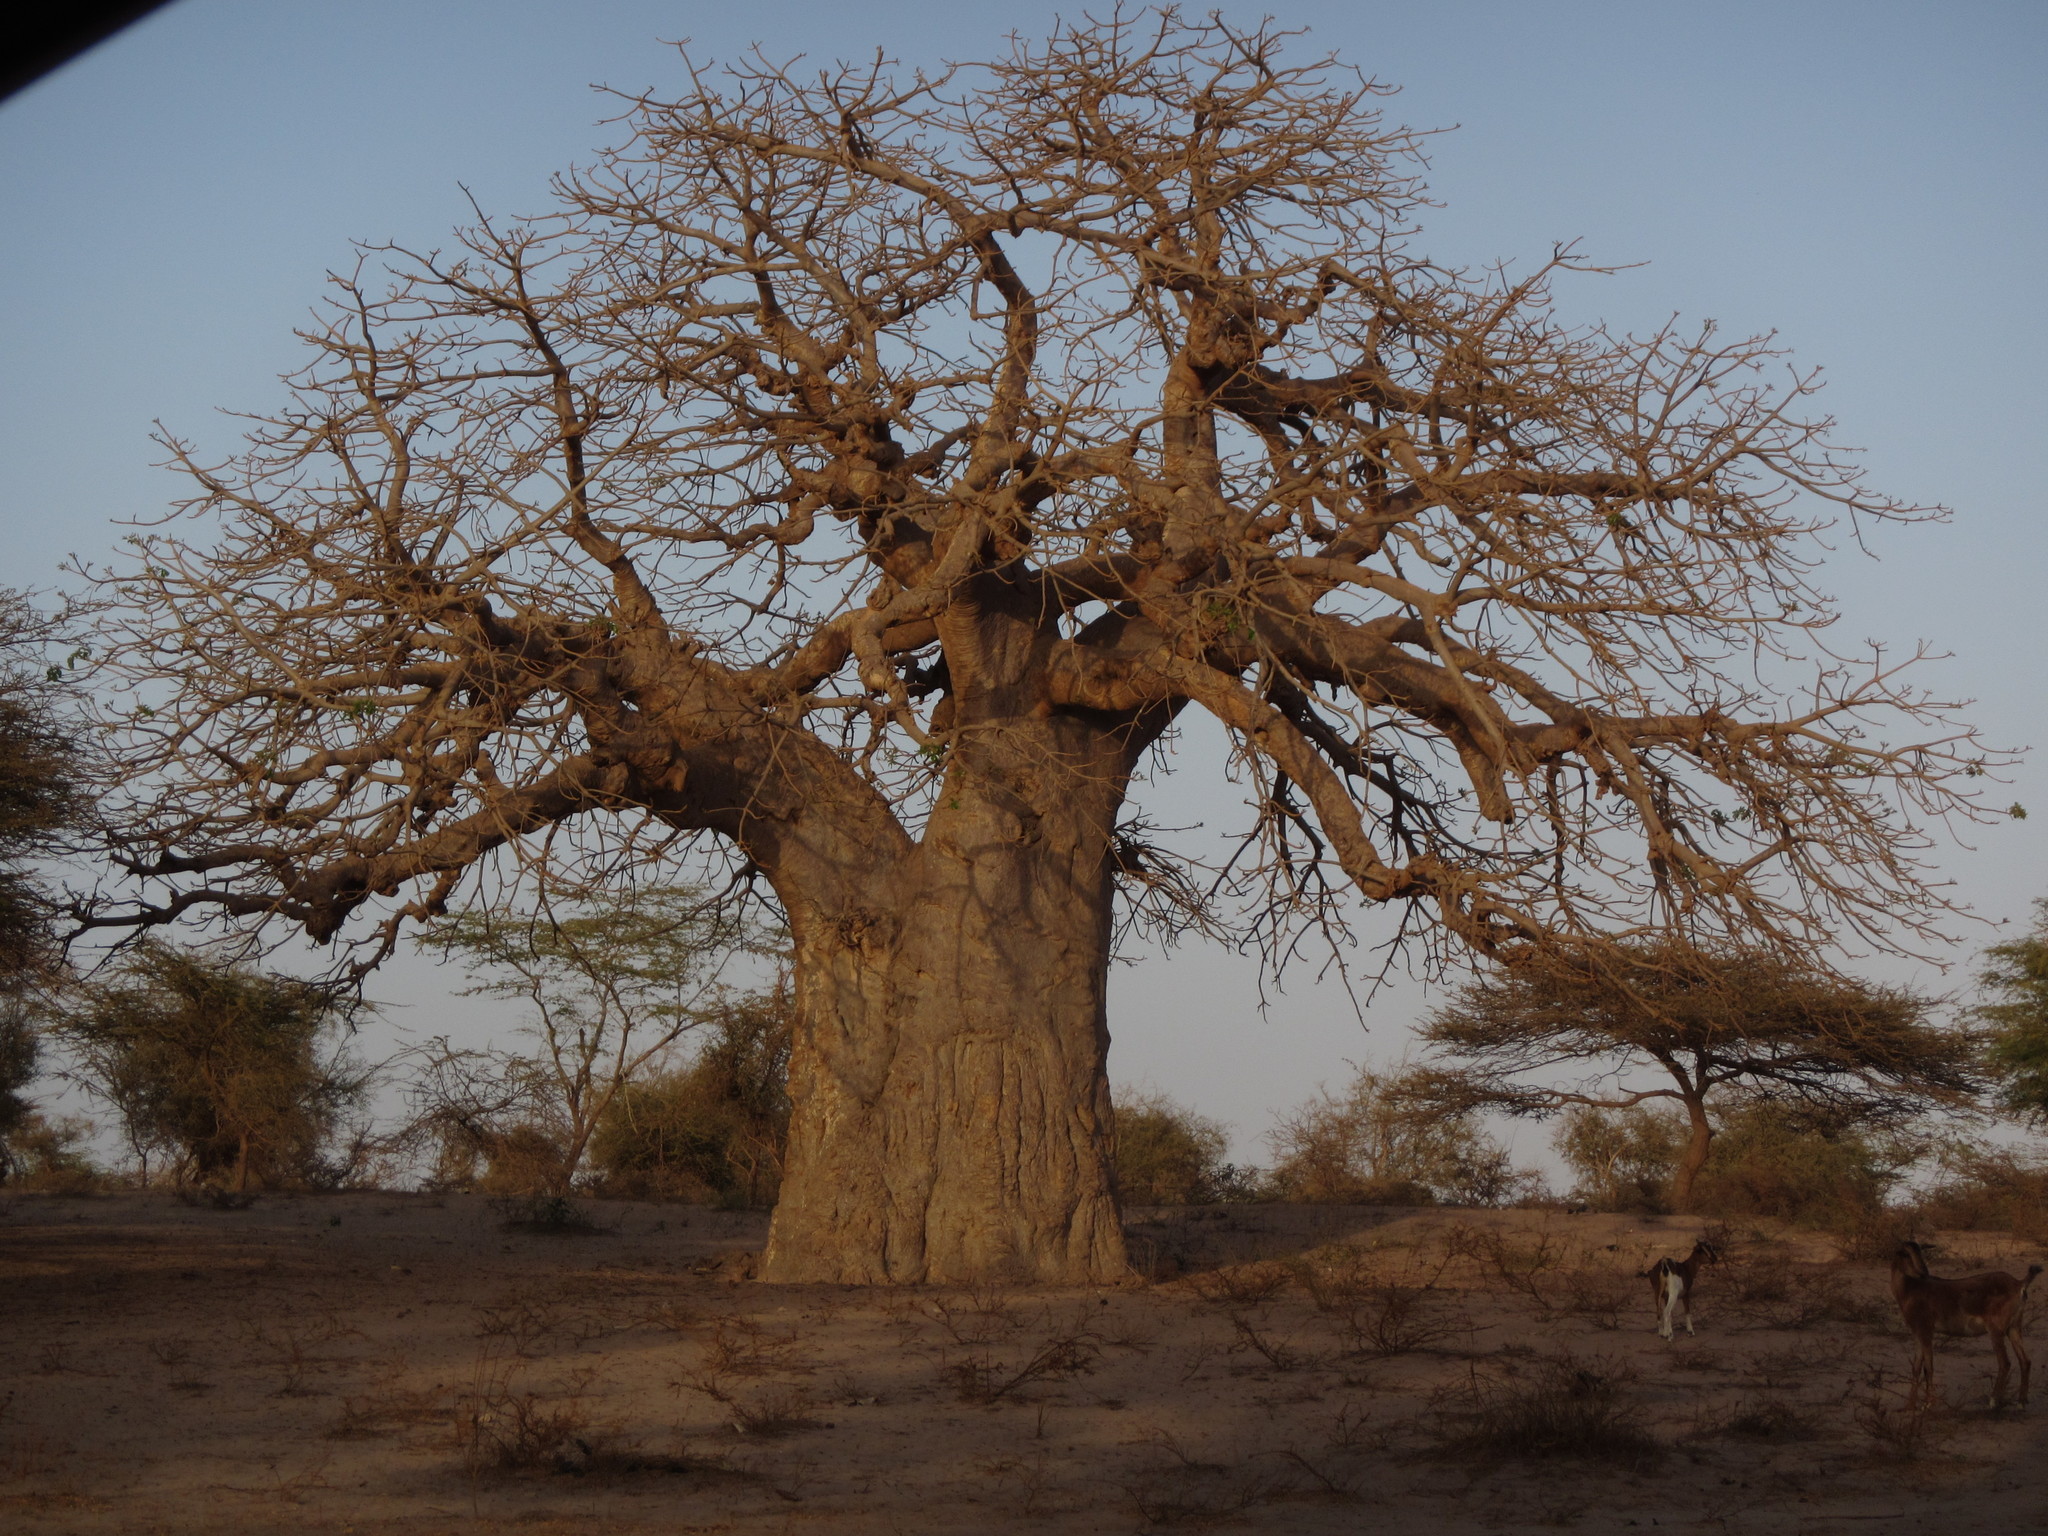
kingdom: Plantae
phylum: Tracheophyta
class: Magnoliopsida
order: Malvales
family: Malvaceae
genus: Adansonia
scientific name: Adansonia digitata
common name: Dead-rat-tree
